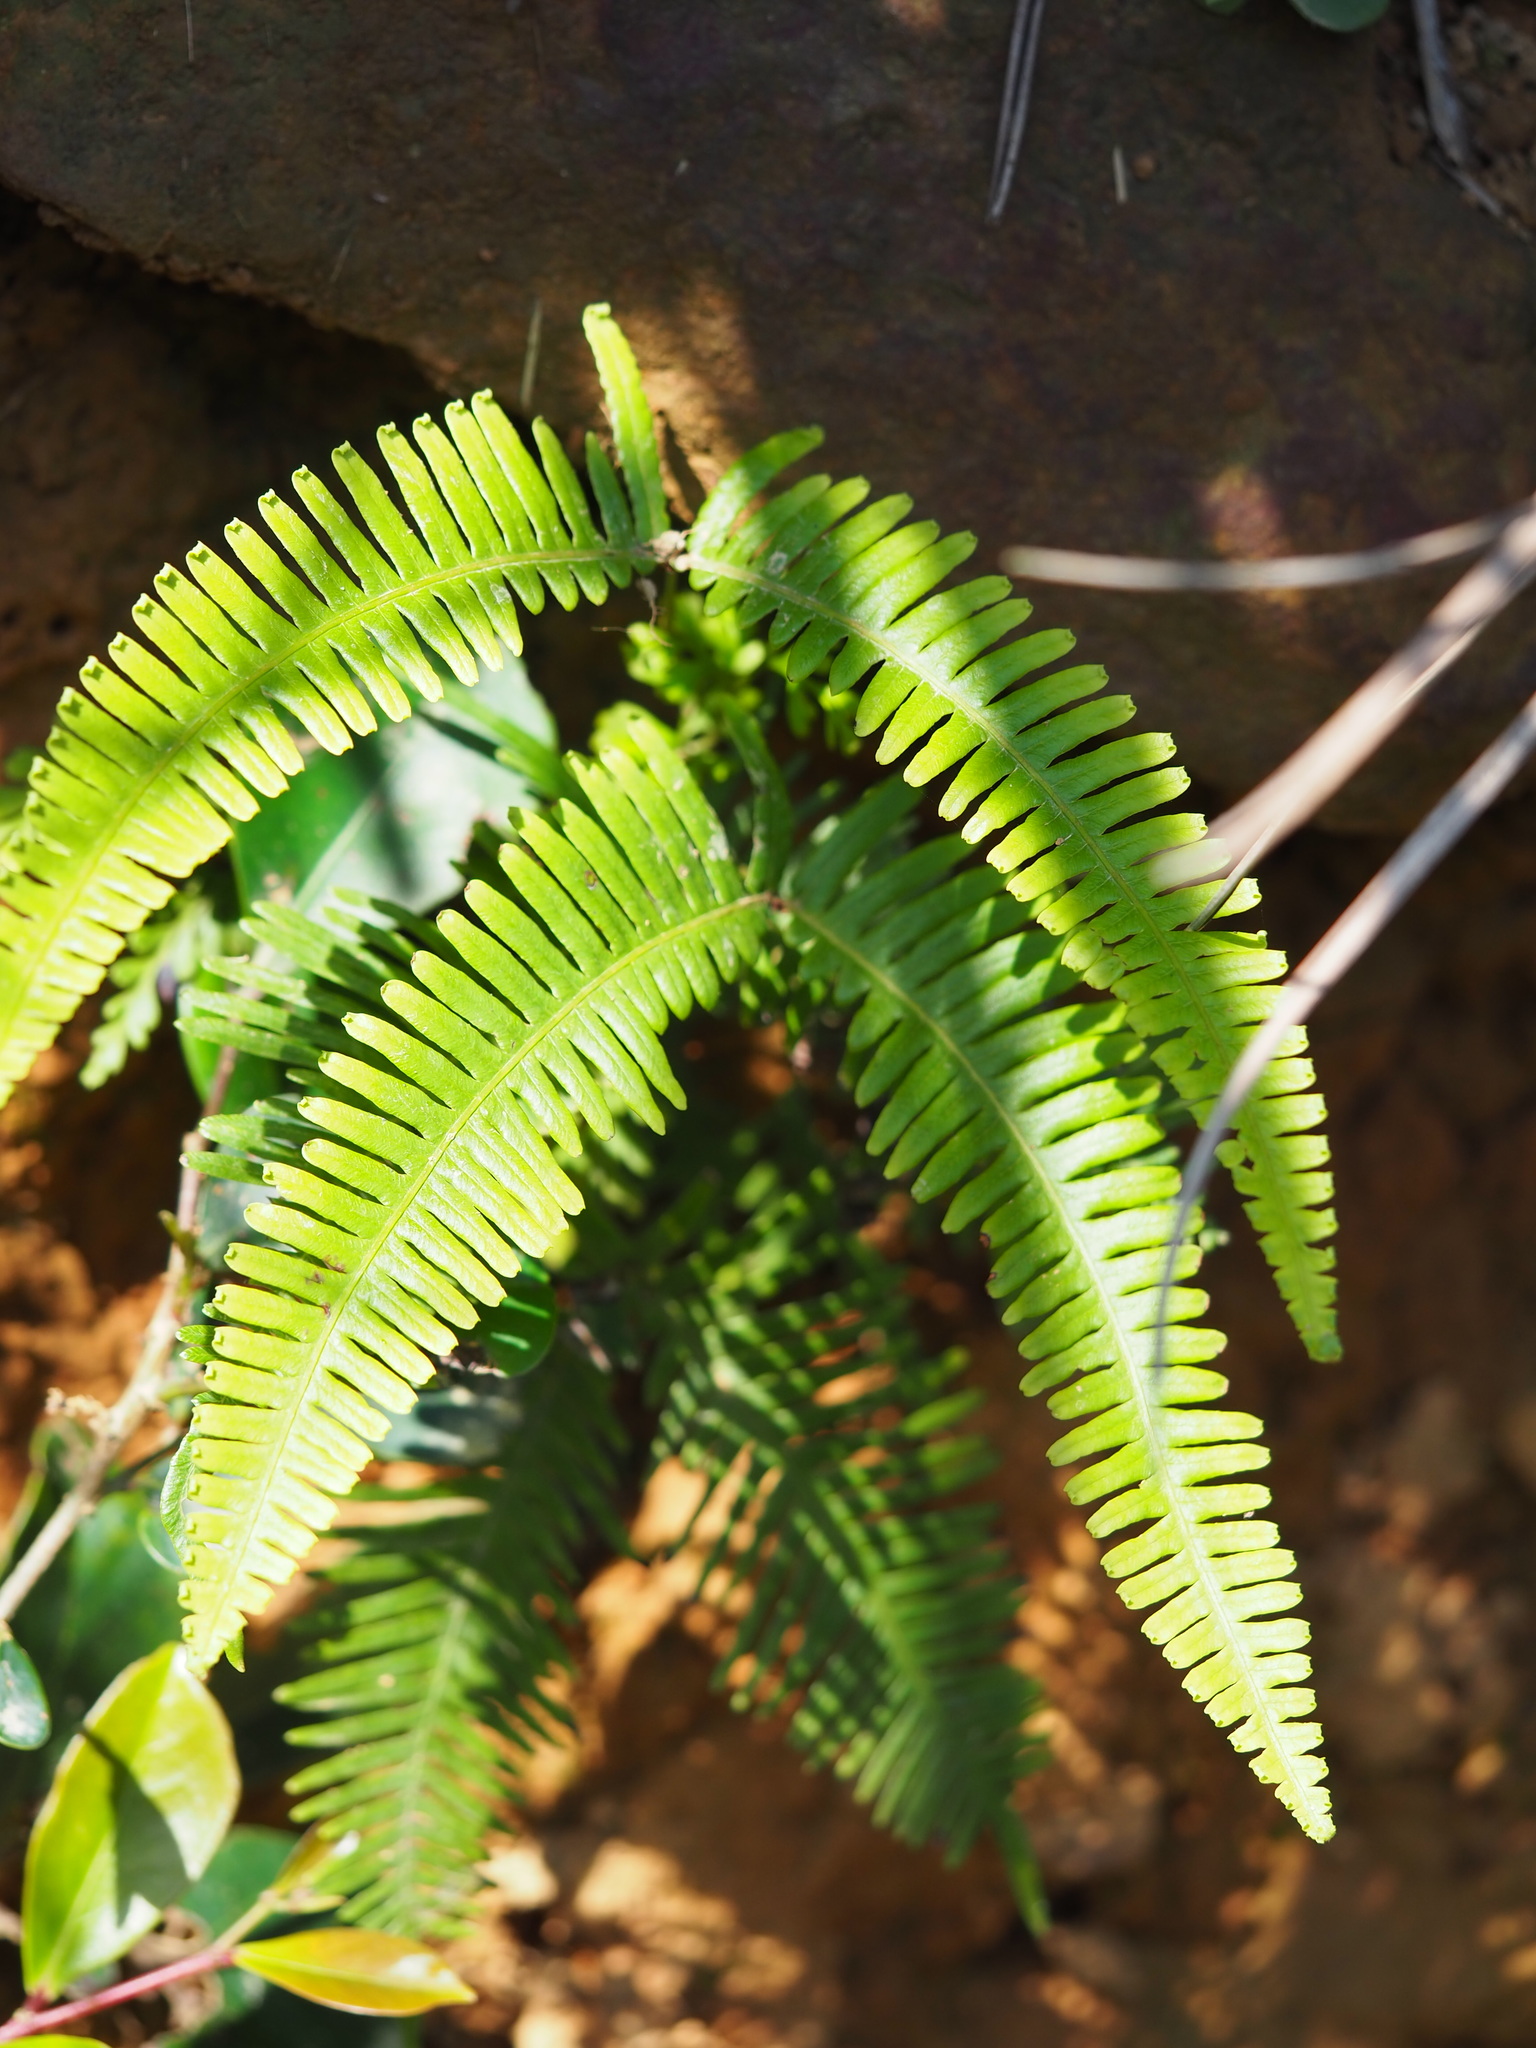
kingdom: Plantae
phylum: Tracheophyta
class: Polypodiopsida
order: Gleicheniales
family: Gleicheniaceae
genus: Dicranopteris
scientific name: Dicranopteris linearis
